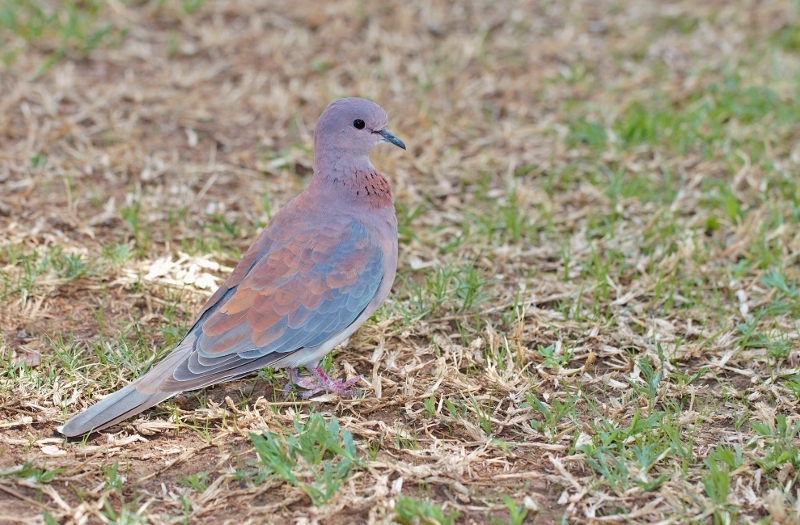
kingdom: Animalia
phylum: Chordata
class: Aves
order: Columbiformes
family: Columbidae
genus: Spilopelia
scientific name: Spilopelia senegalensis
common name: Laughing dove
